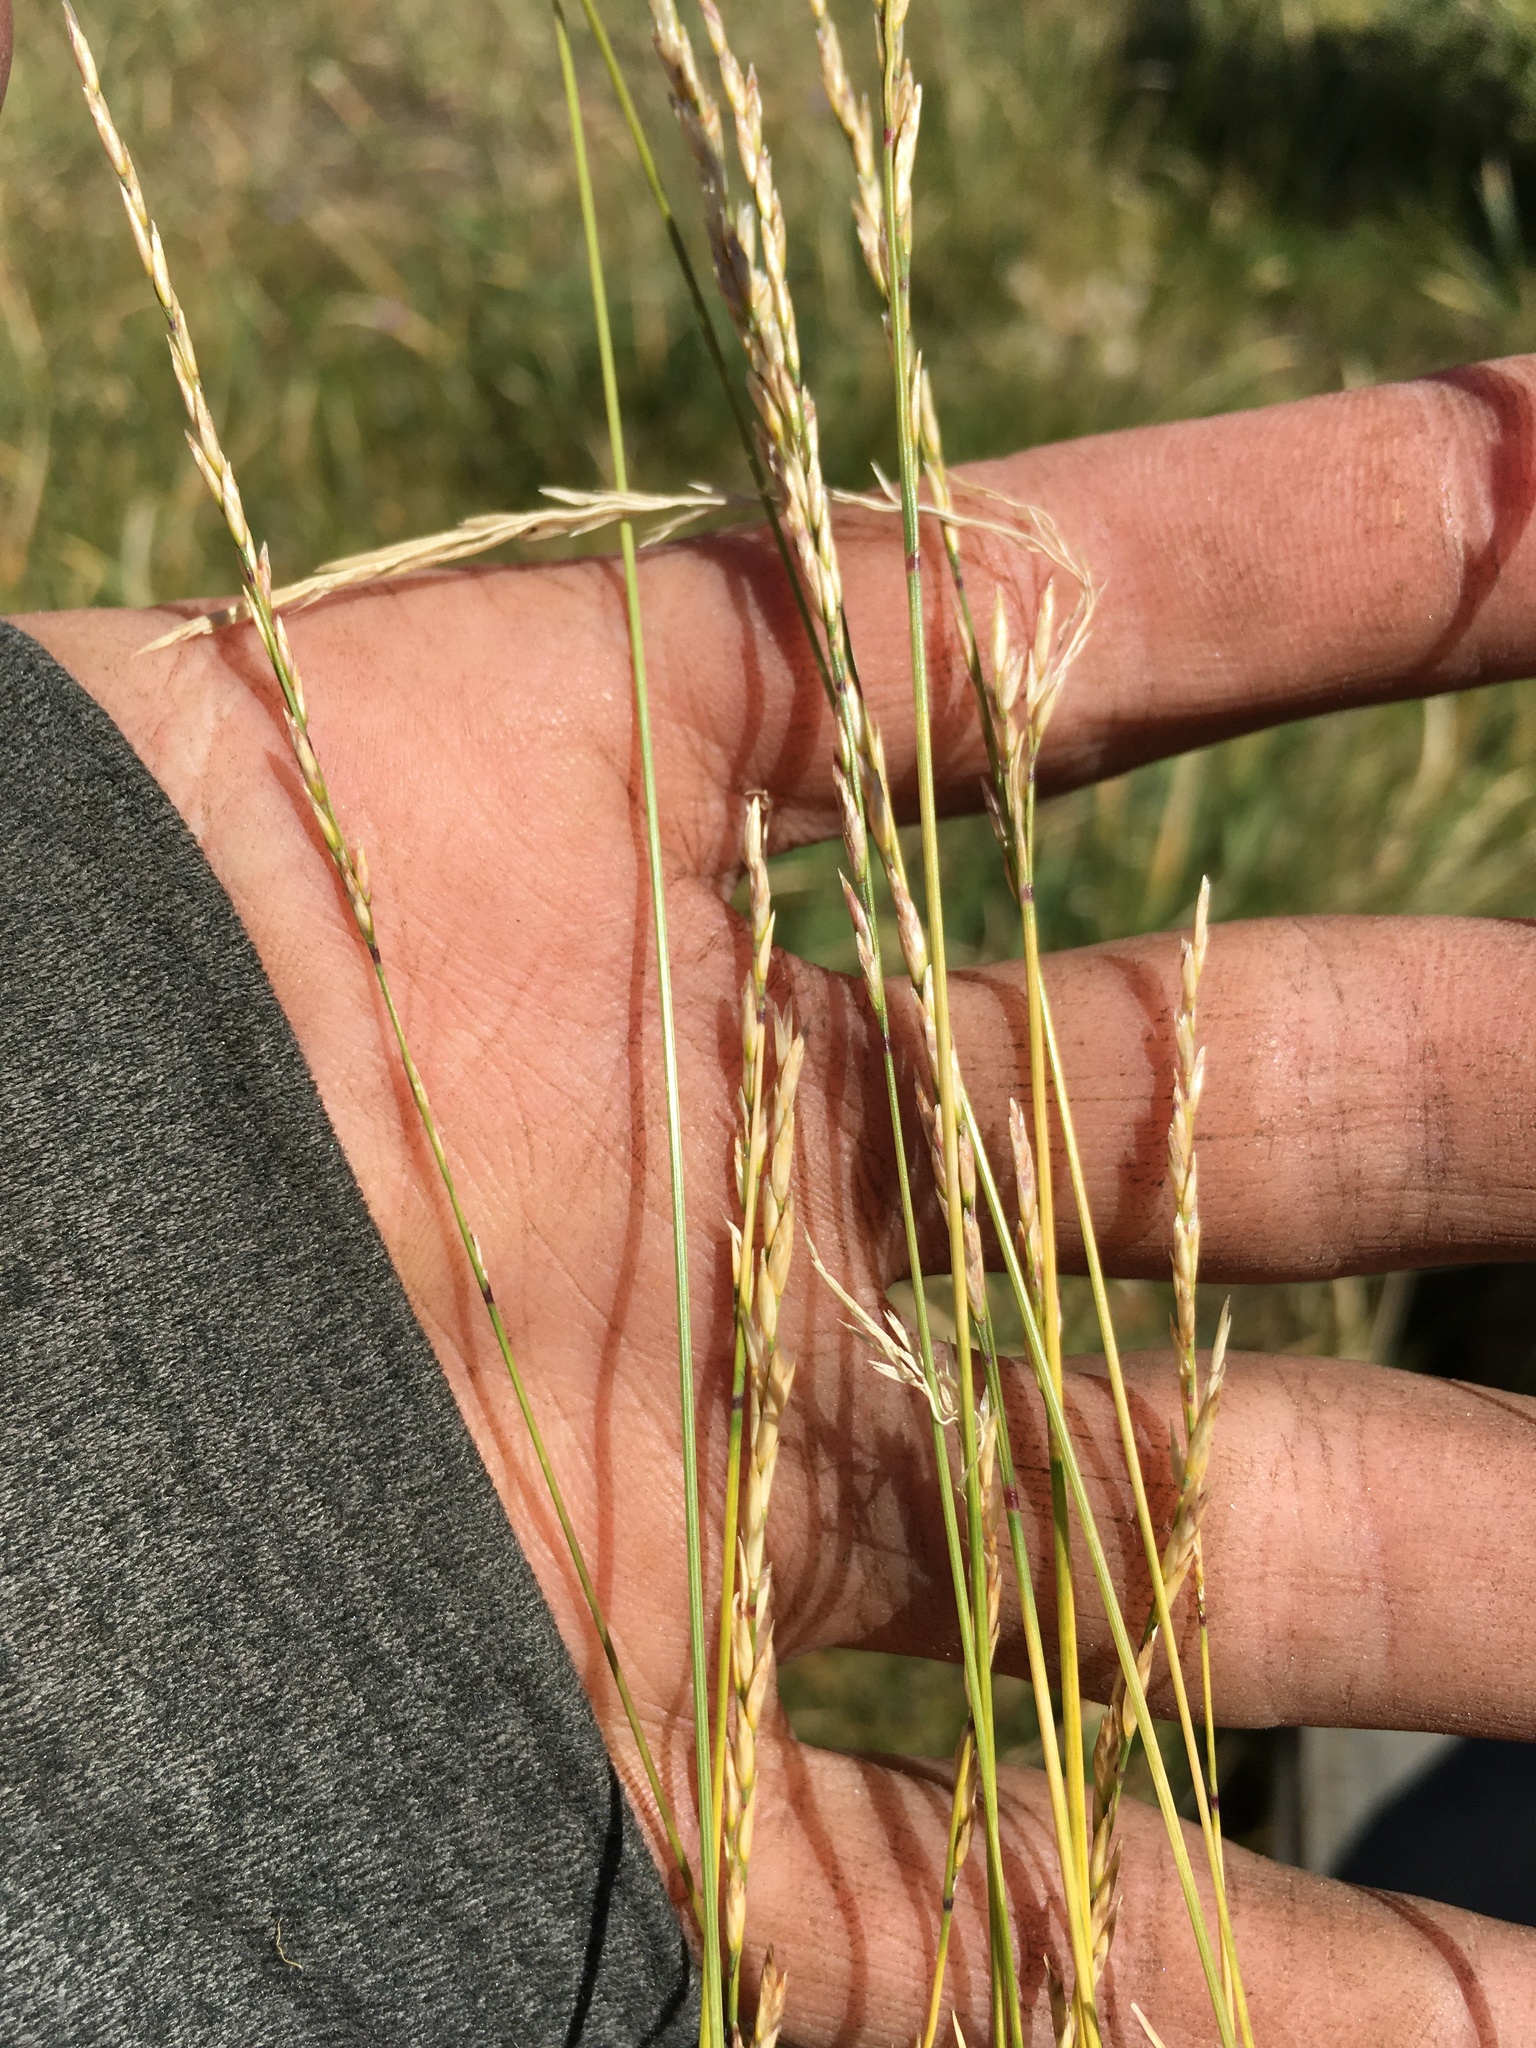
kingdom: Plantae
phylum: Tracheophyta
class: Liliopsida
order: Poales
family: Poaceae
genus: Poa
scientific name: Poa secunda
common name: Sandberg bluegrass
